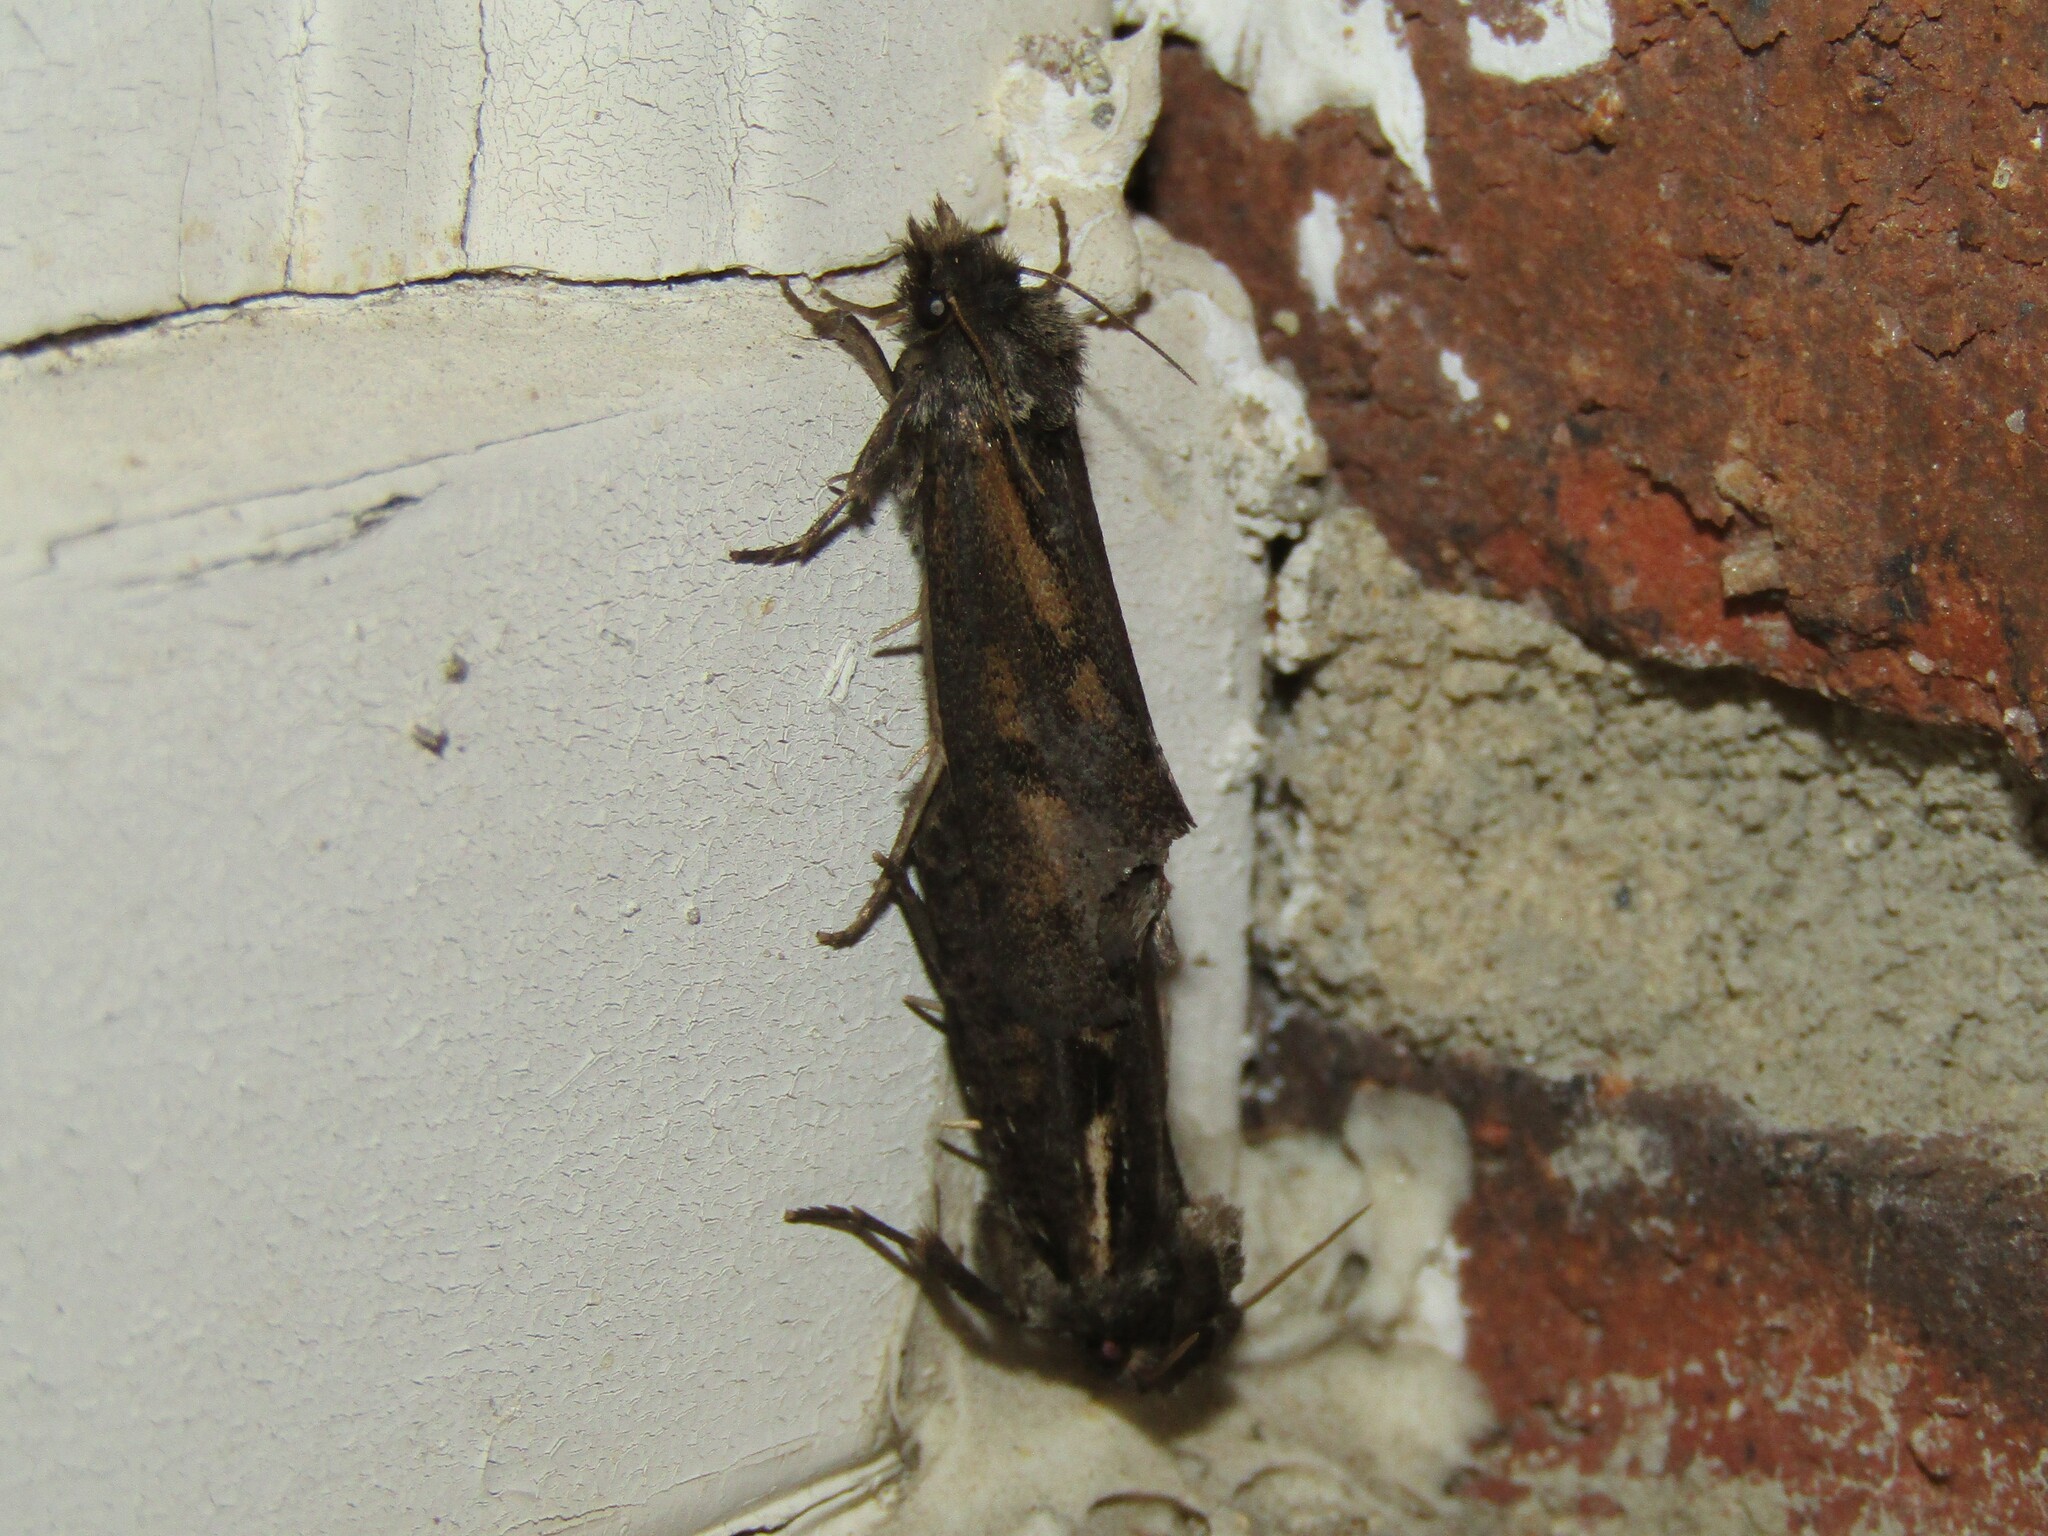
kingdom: Animalia
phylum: Arthropoda
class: Insecta
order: Lepidoptera
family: Tineidae
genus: Acrolophus
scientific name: Acrolophus popeanella
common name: Clemens' grass tubeworm moth
